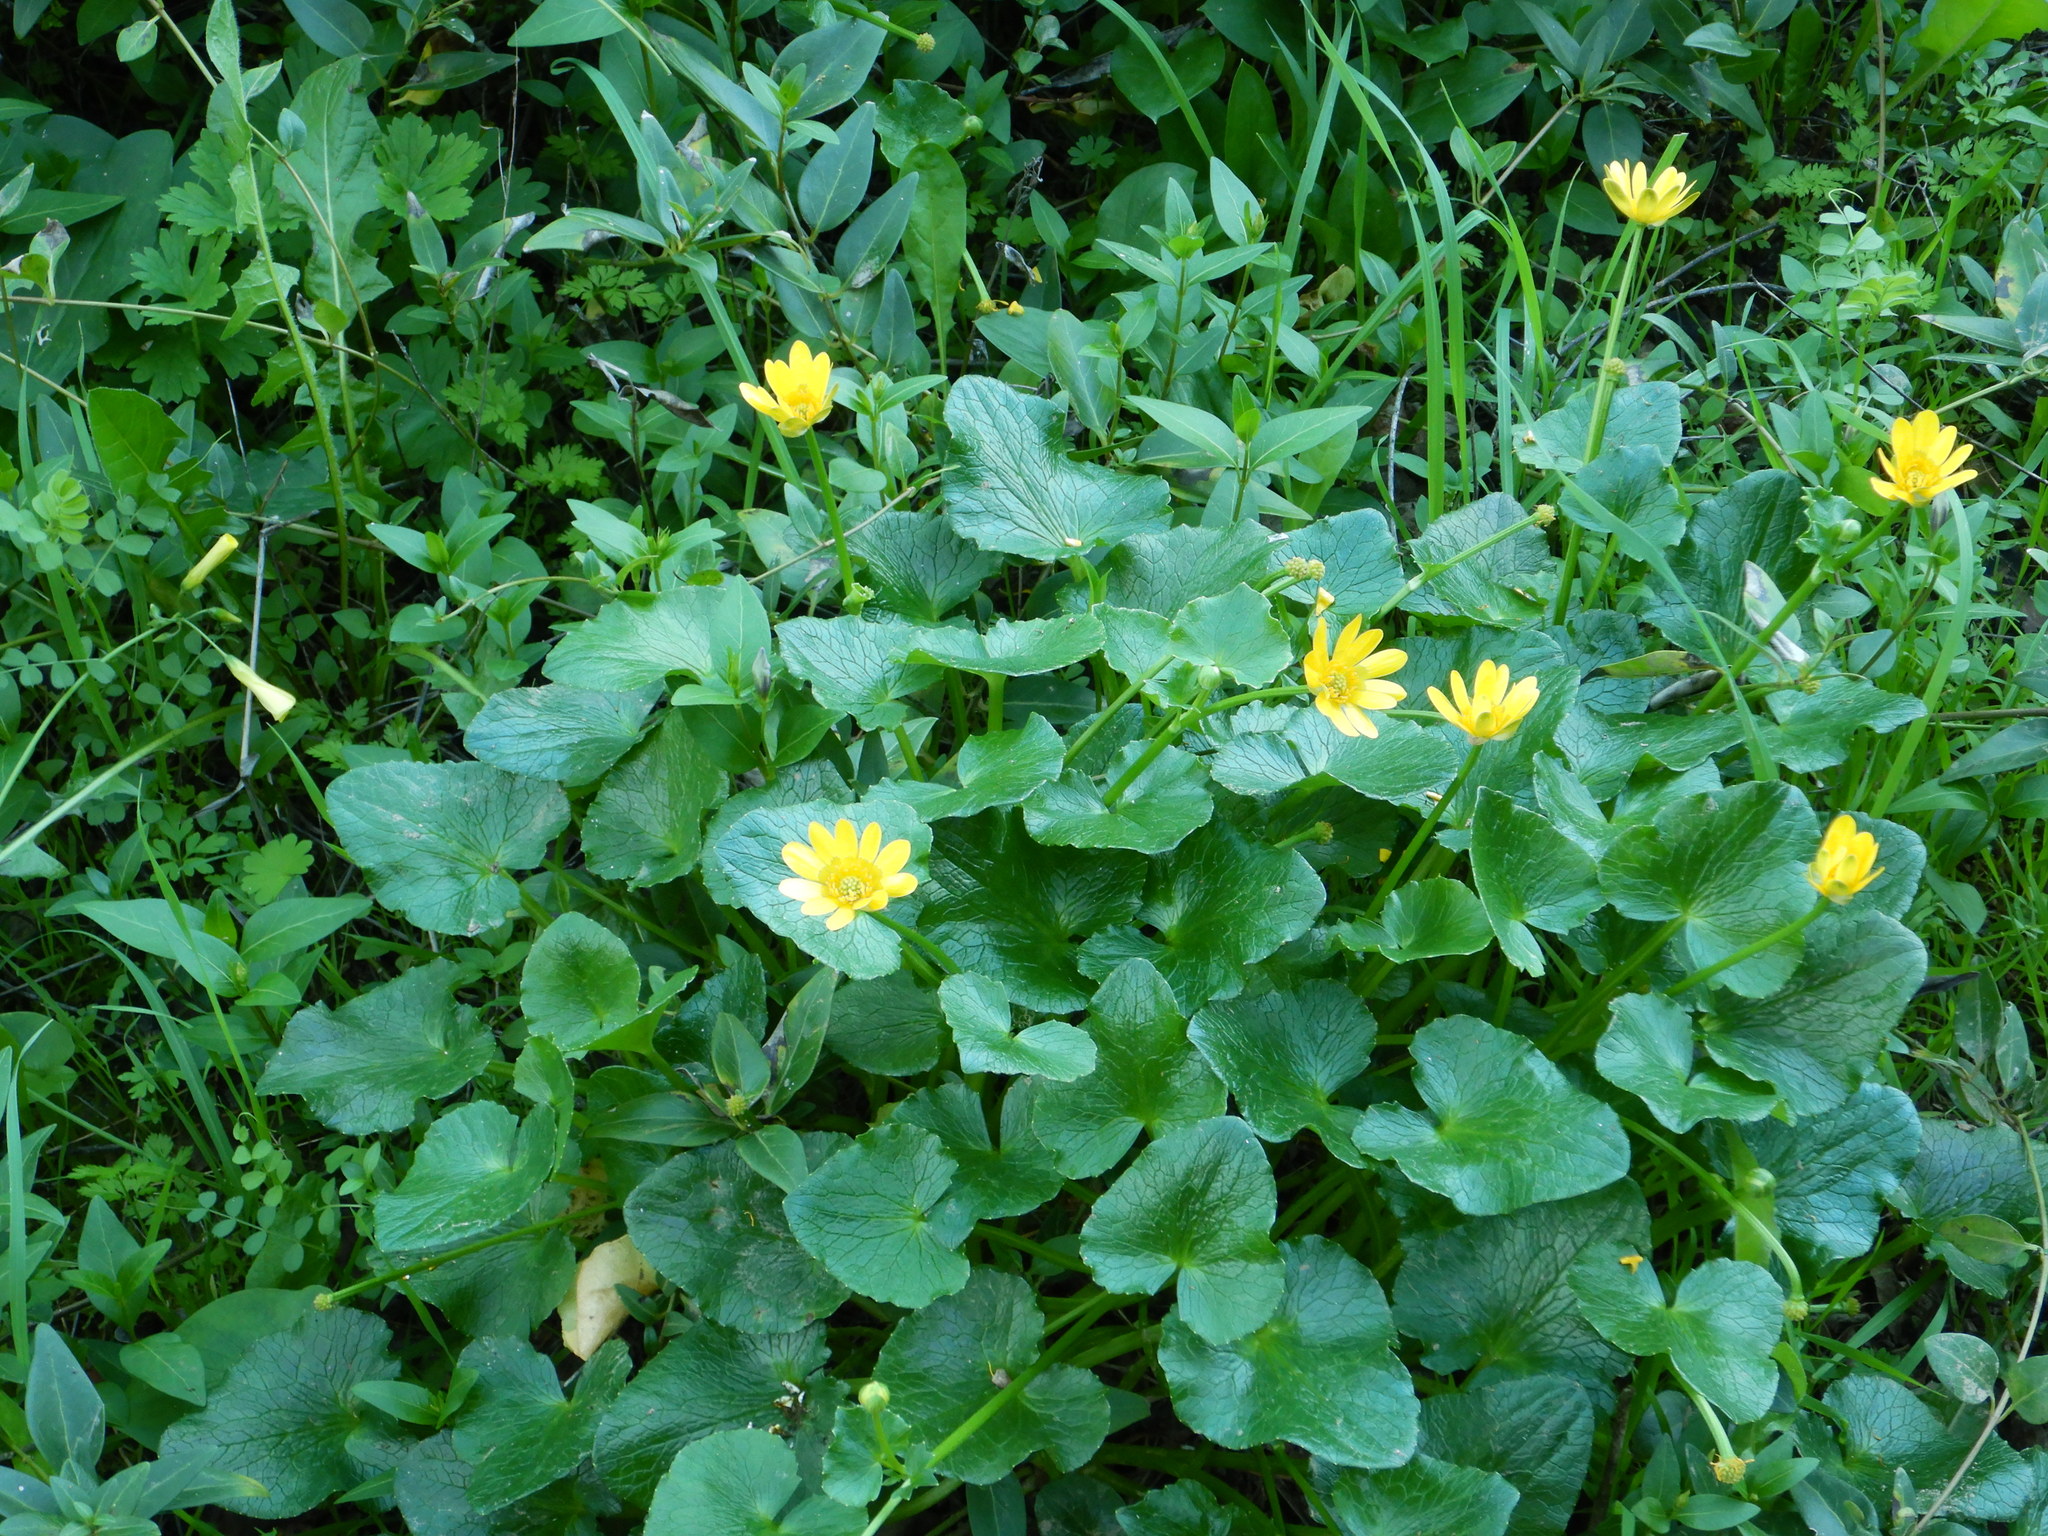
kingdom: Plantae
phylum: Tracheophyta
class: Magnoliopsida
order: Ranunculales
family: Ranunculaceae
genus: Ficaria
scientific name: Ficaria verna
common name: Lesser celandine
